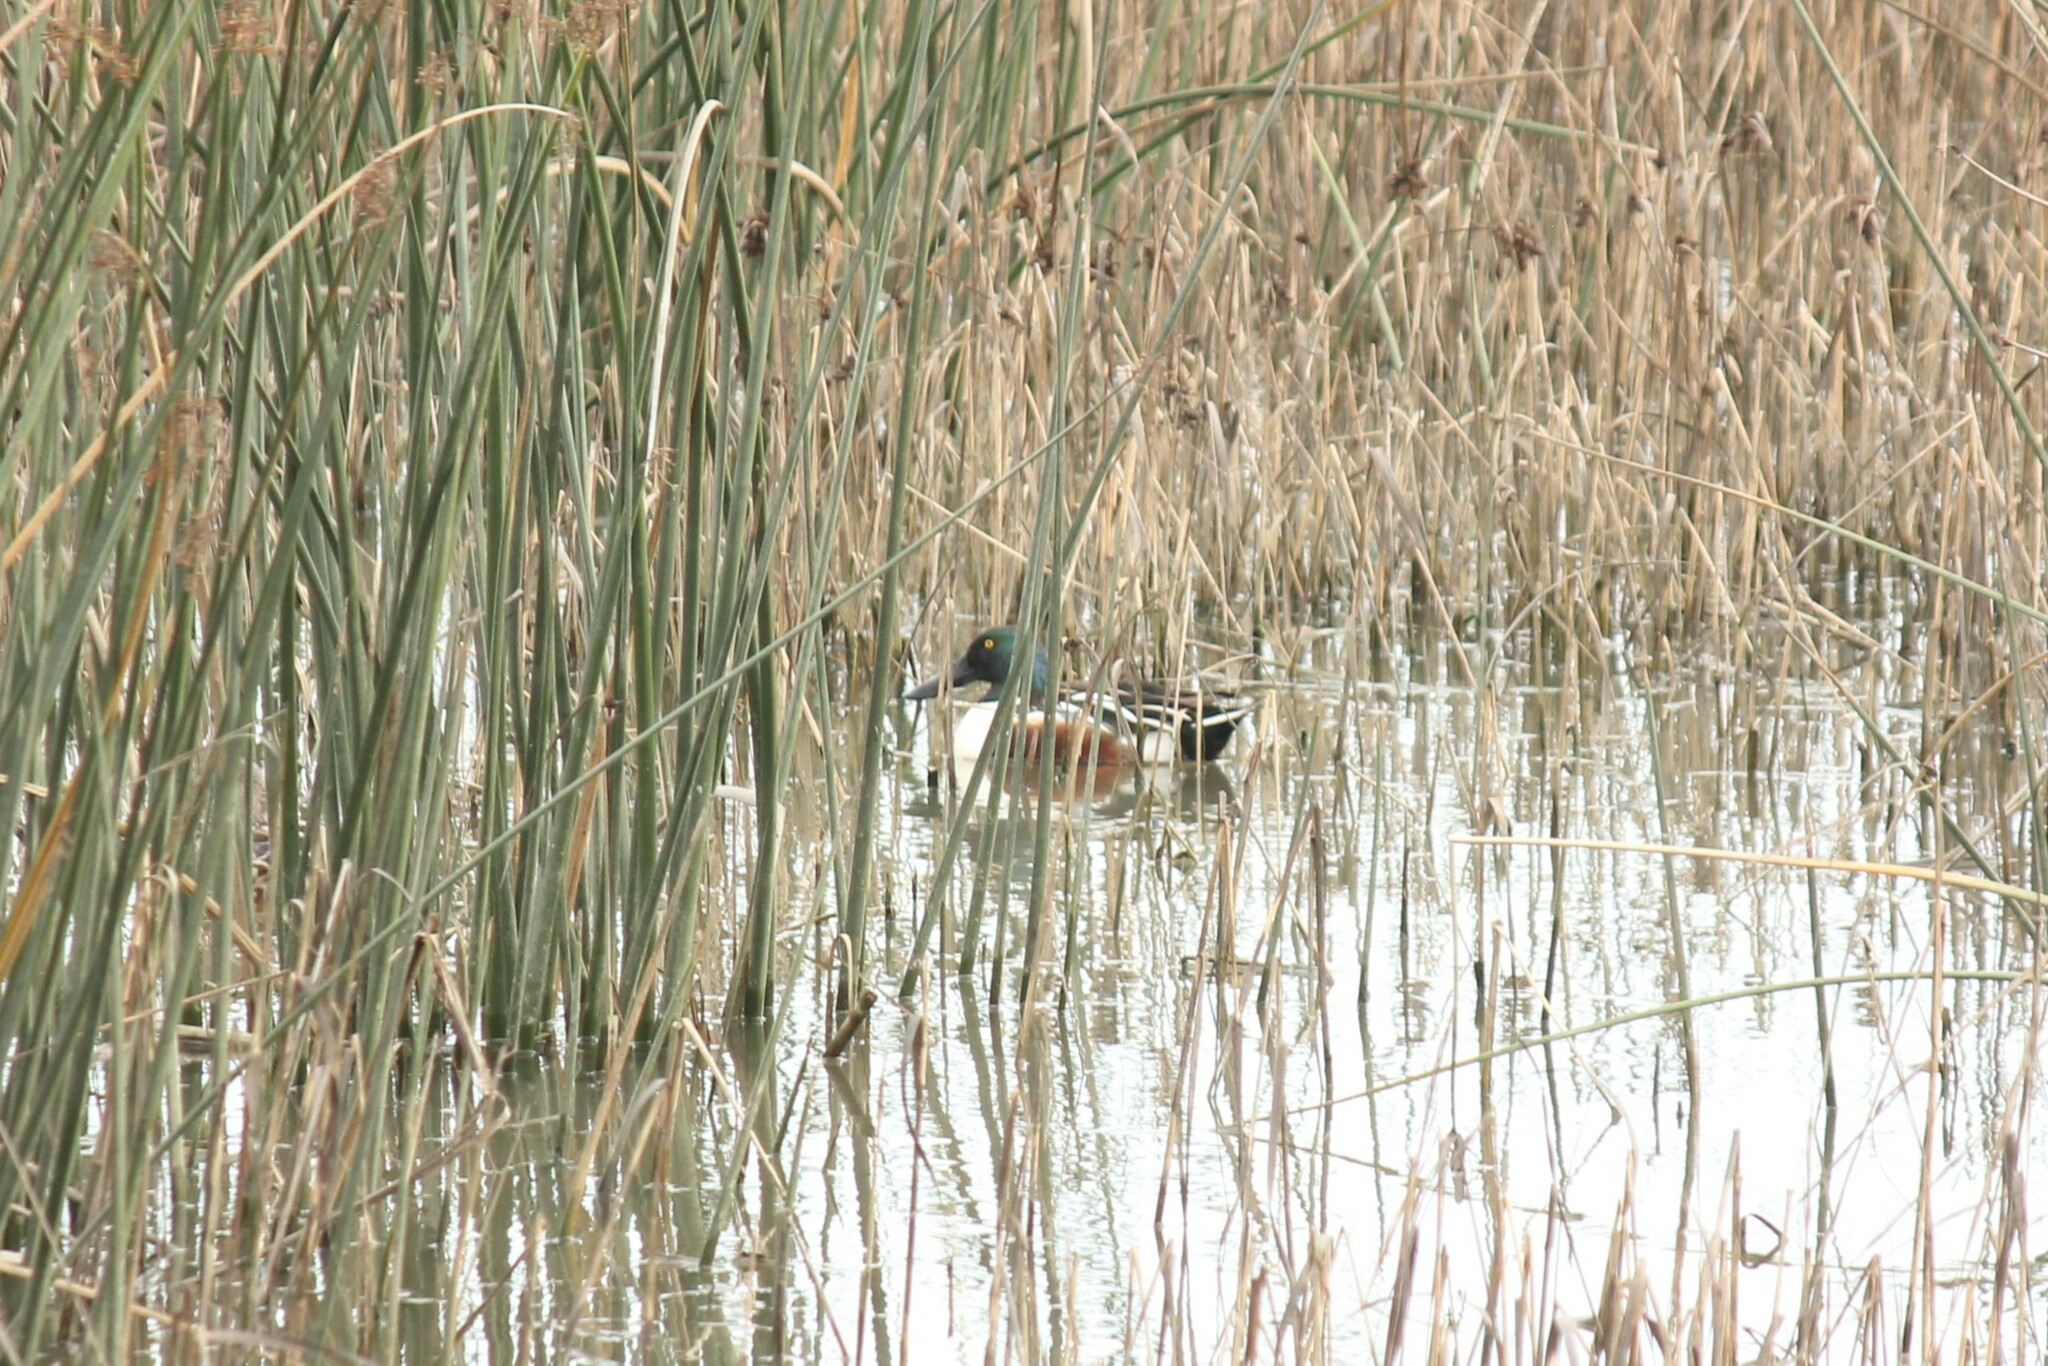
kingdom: Animalia
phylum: Chordata
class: Aves
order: Anseriformes
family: Anatidae
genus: Spatula
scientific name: Spatula clypeata
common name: Northern shoveler
